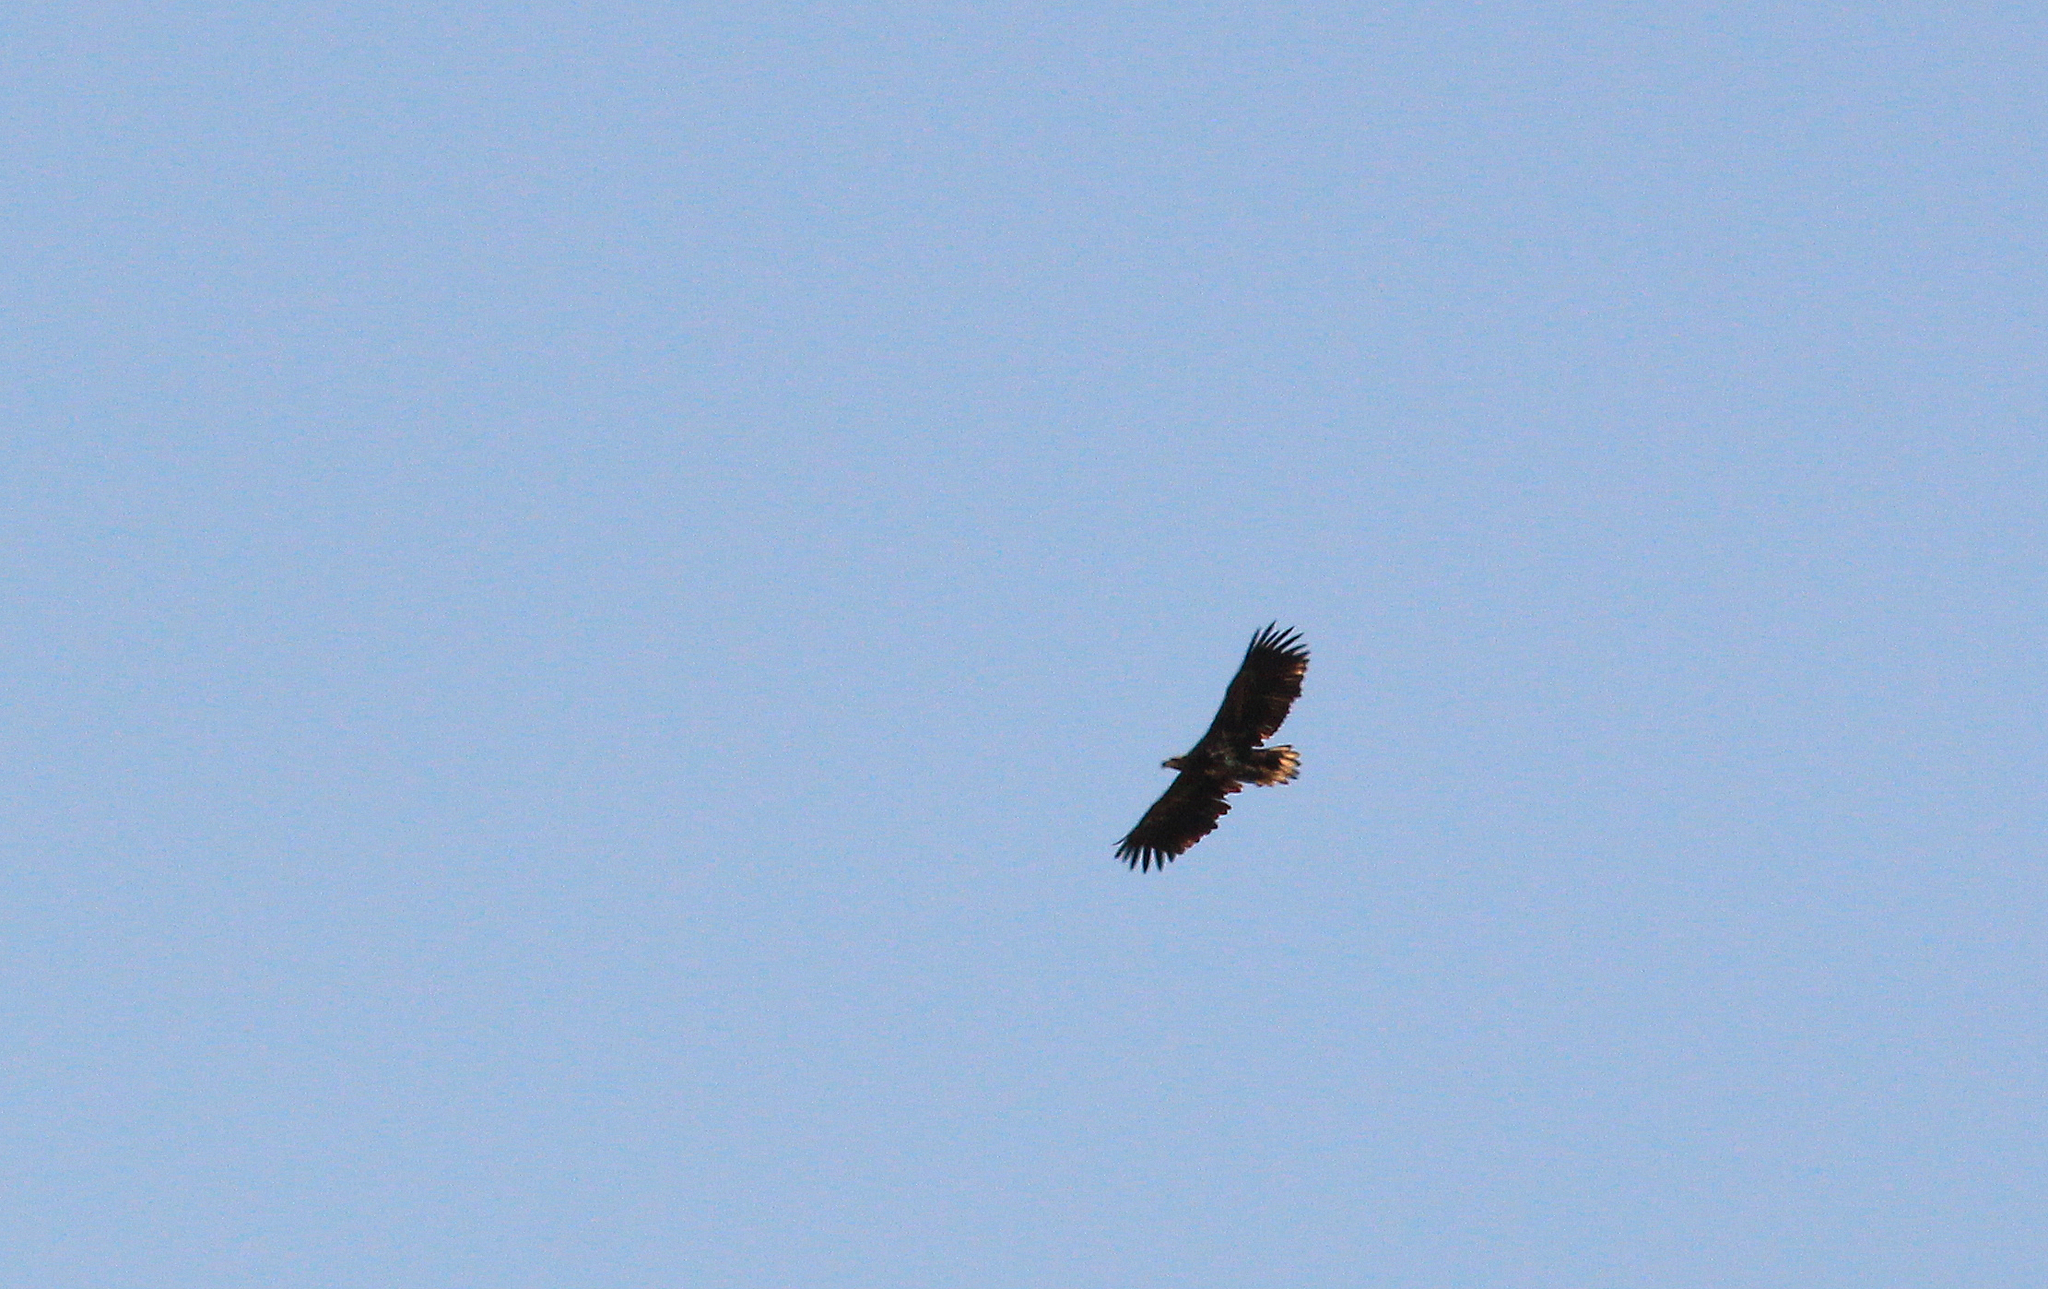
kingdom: Animalia
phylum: Chordata
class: Aves
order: Accipitriformes
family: Accipitridae
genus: Haliaeetus
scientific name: Haliaeetus albicilla
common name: White-tailed eagle
